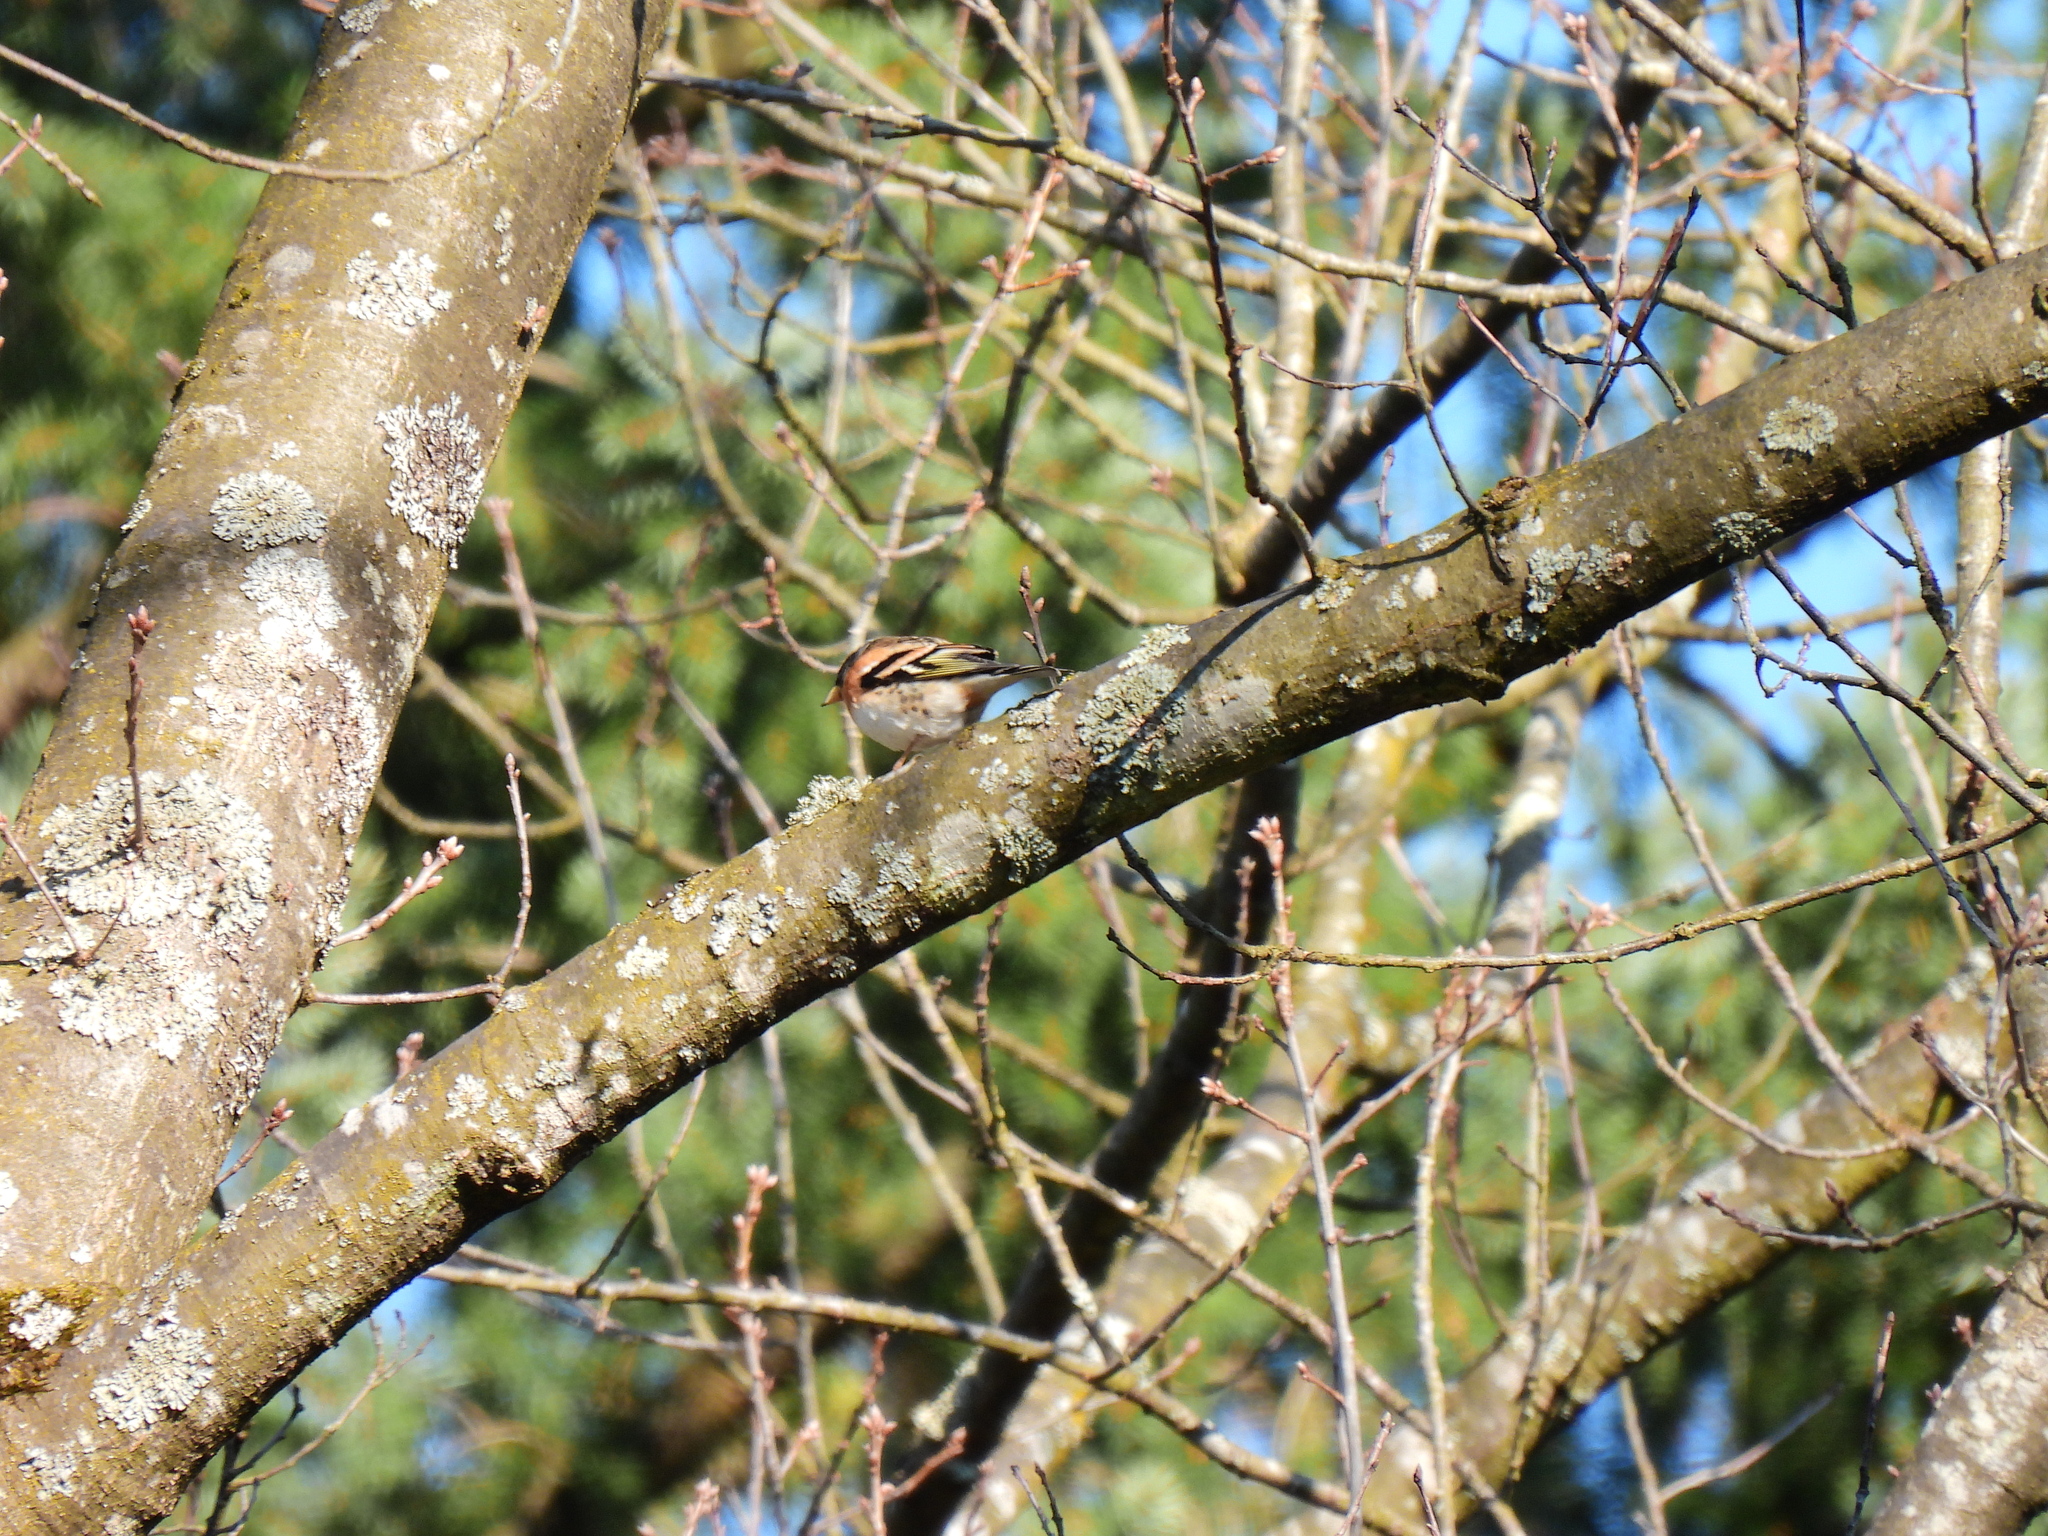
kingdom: Animalia
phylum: Chordata
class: Aves
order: Passeriformes
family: Fringillidae
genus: Fringilla
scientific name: Fringilla montifringilla
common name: Brambling
